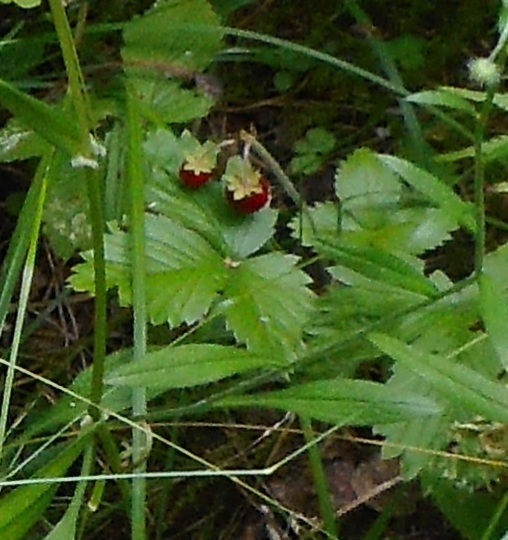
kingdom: Plantae
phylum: Tracheophyta
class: Magnoliopsida
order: Rosales
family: Rosaceae
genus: Fragaria
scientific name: Fragaria vesca
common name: Wild strawberry
